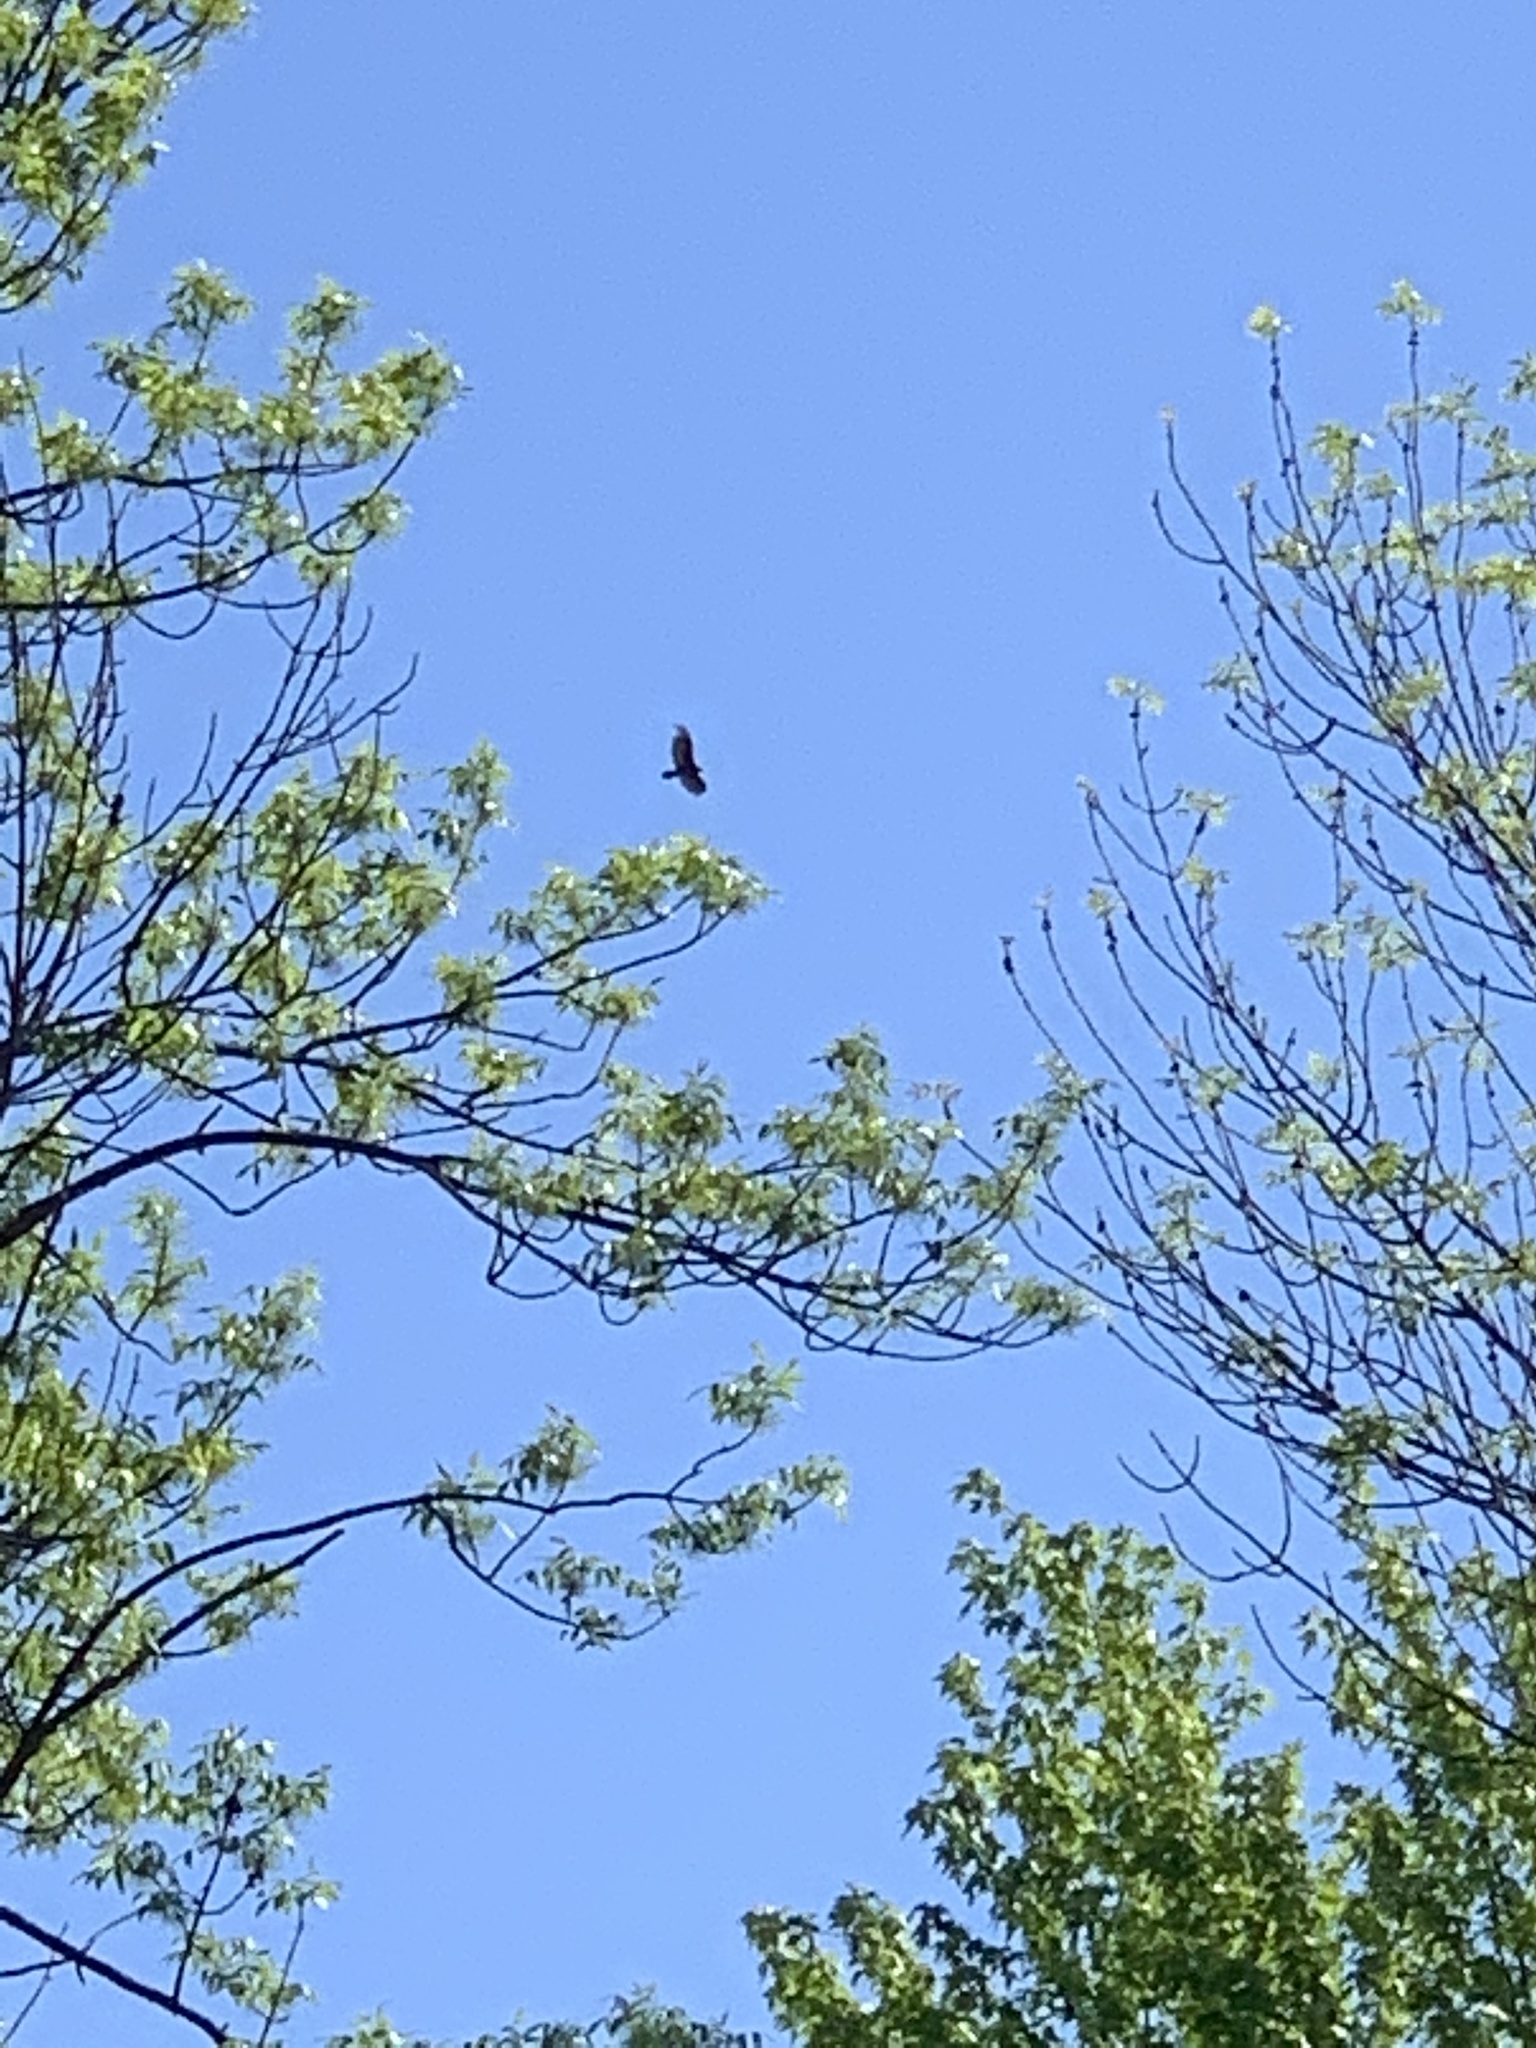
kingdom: Animalia
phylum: Chordata
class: Aves
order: Accipitriformes
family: Cathartidae
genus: Cathartes
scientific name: Cathartes aura
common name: Turkey vulture
